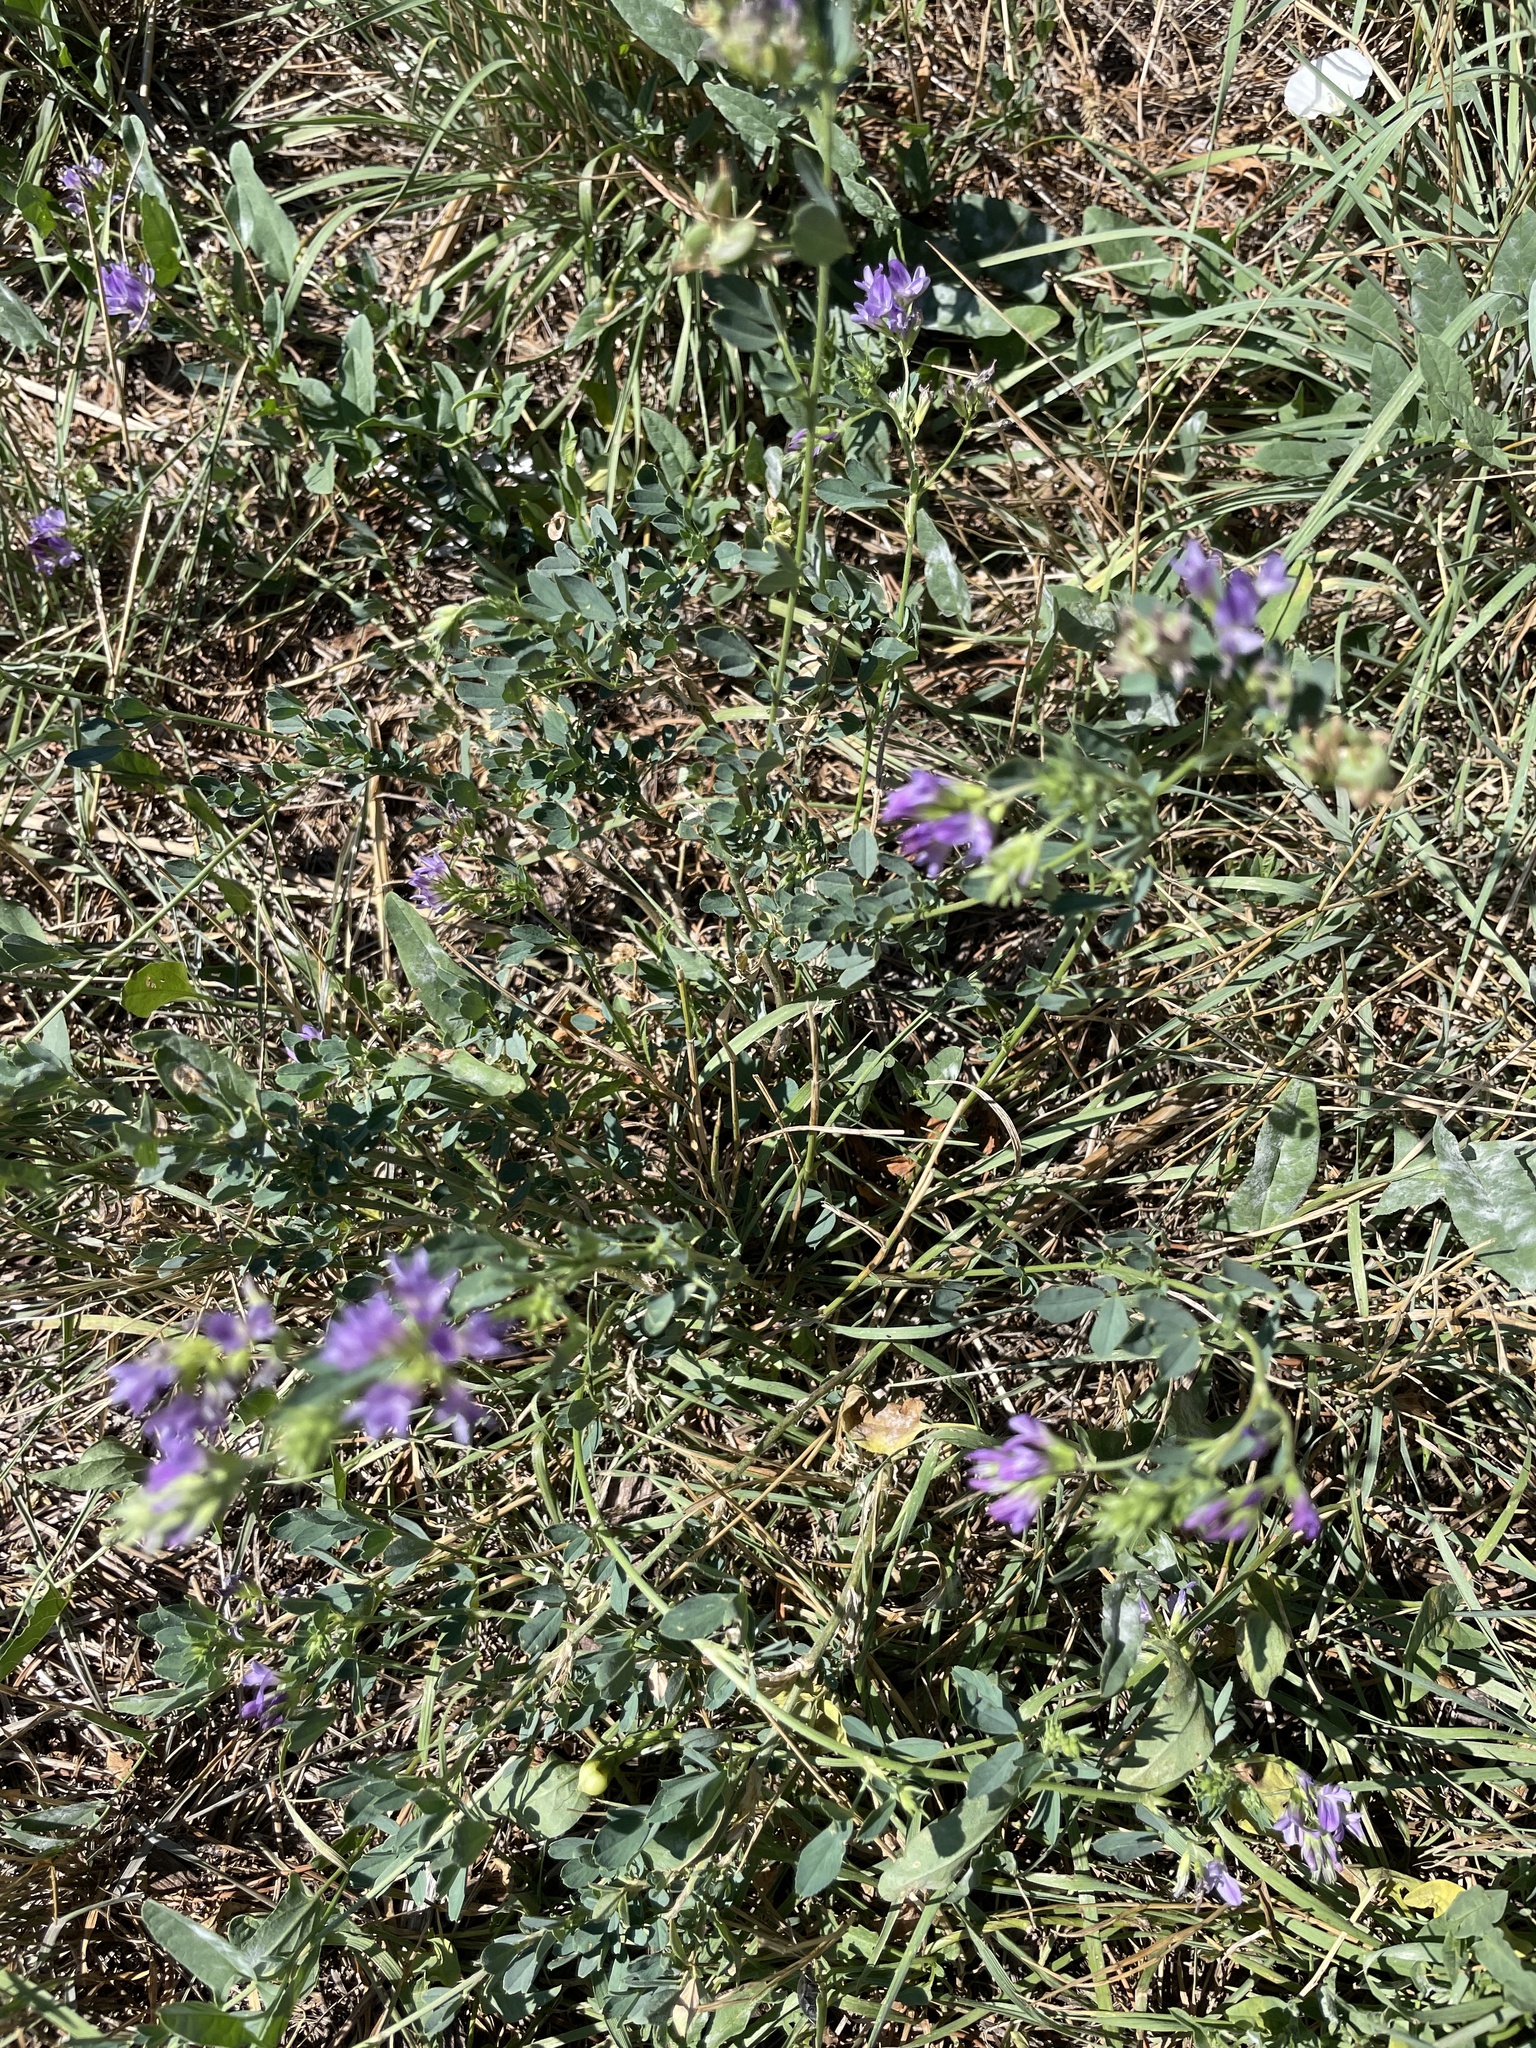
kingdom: Plantae
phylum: Tracheophyta
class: Magnoliopsida
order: Fabales
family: Fabaceae
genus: Medicago
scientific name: Medicago sativa
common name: Alfalfa
